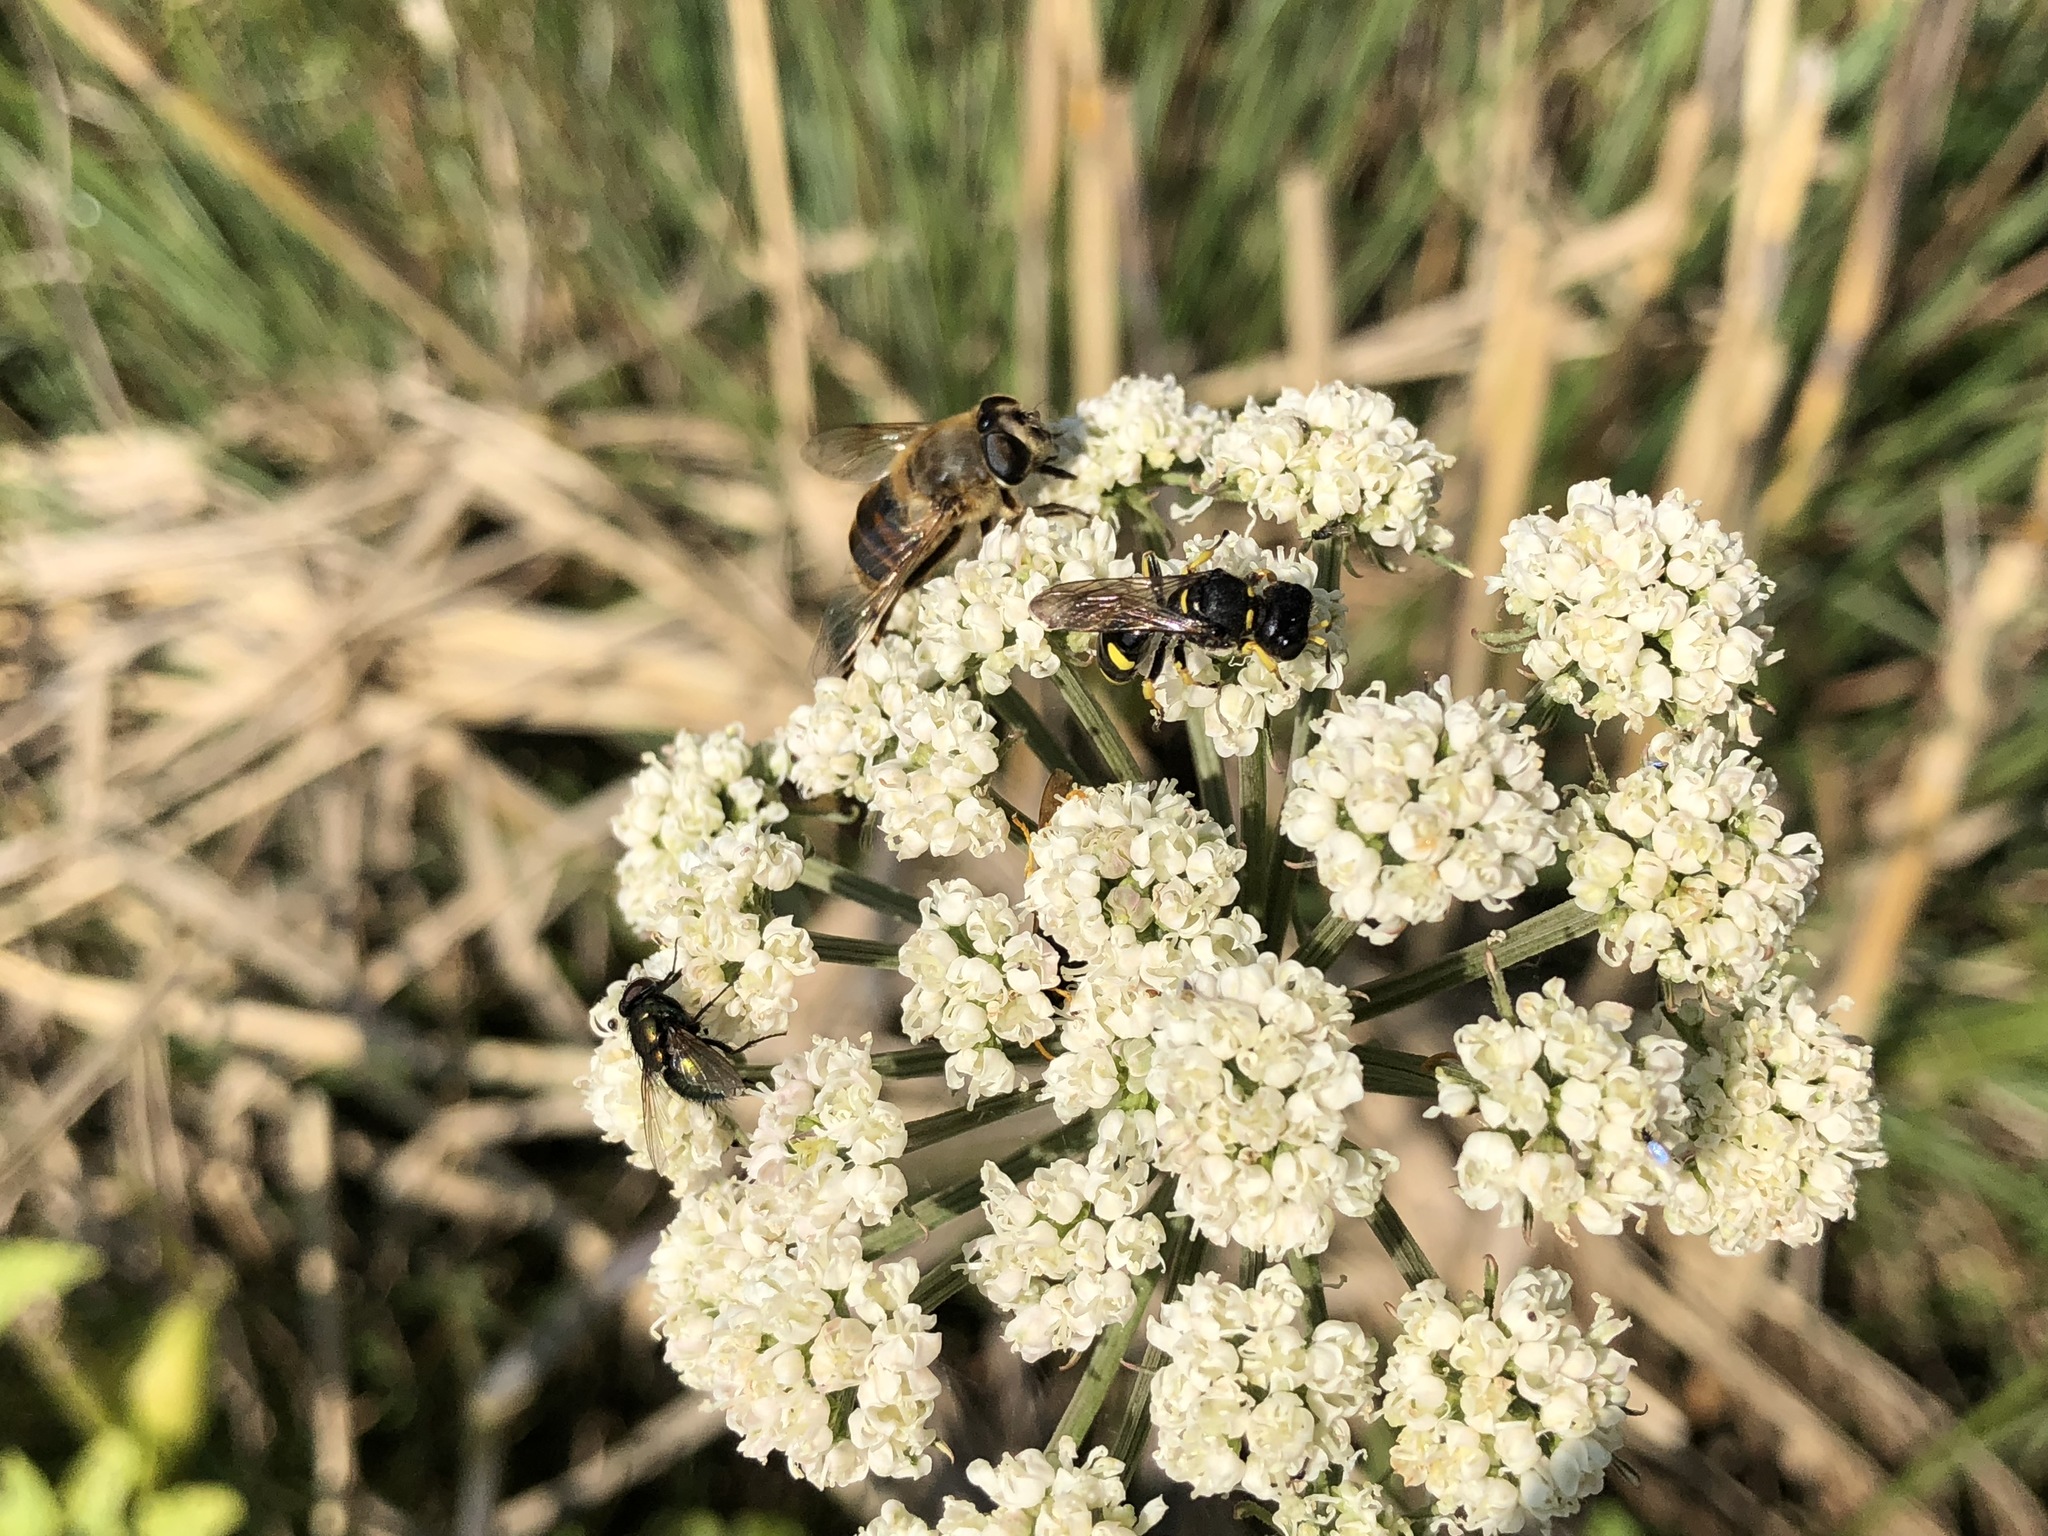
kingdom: Animalia
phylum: Arthropoda
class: Insecta
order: Diptera
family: Syrphidae
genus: Eristalis
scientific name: Eristalis tenax
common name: Drone fly
